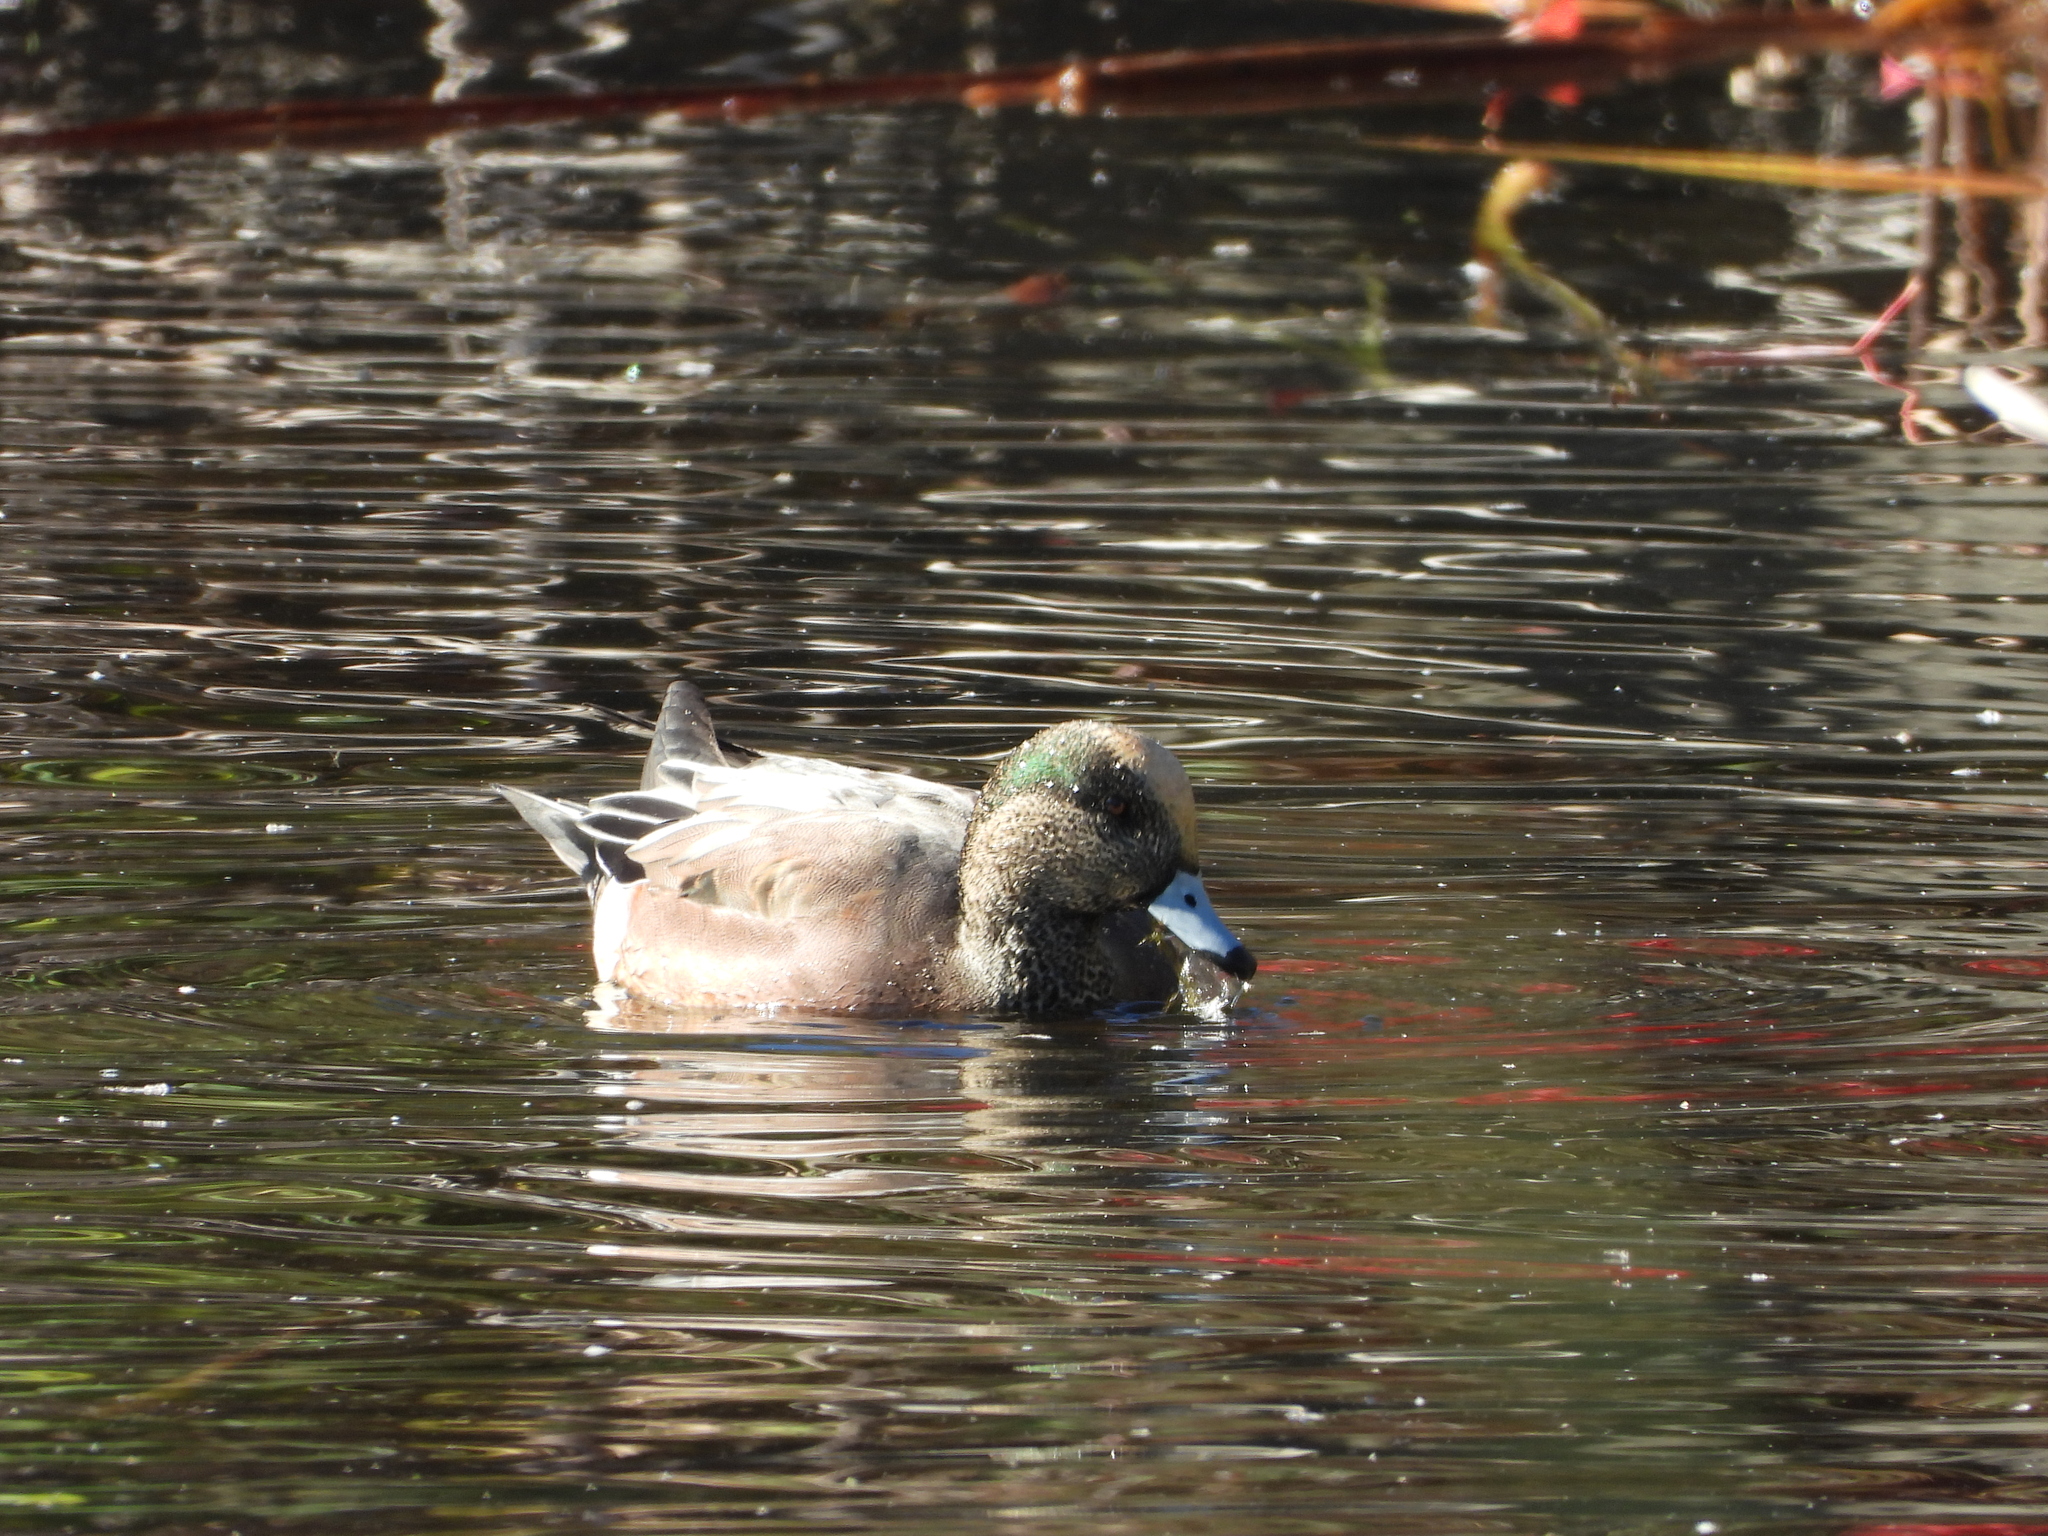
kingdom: Animalia
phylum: Chordata
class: Aves
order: Anseriformes
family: Anatidae
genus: Mareca
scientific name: Mareca americana
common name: American wigeon
